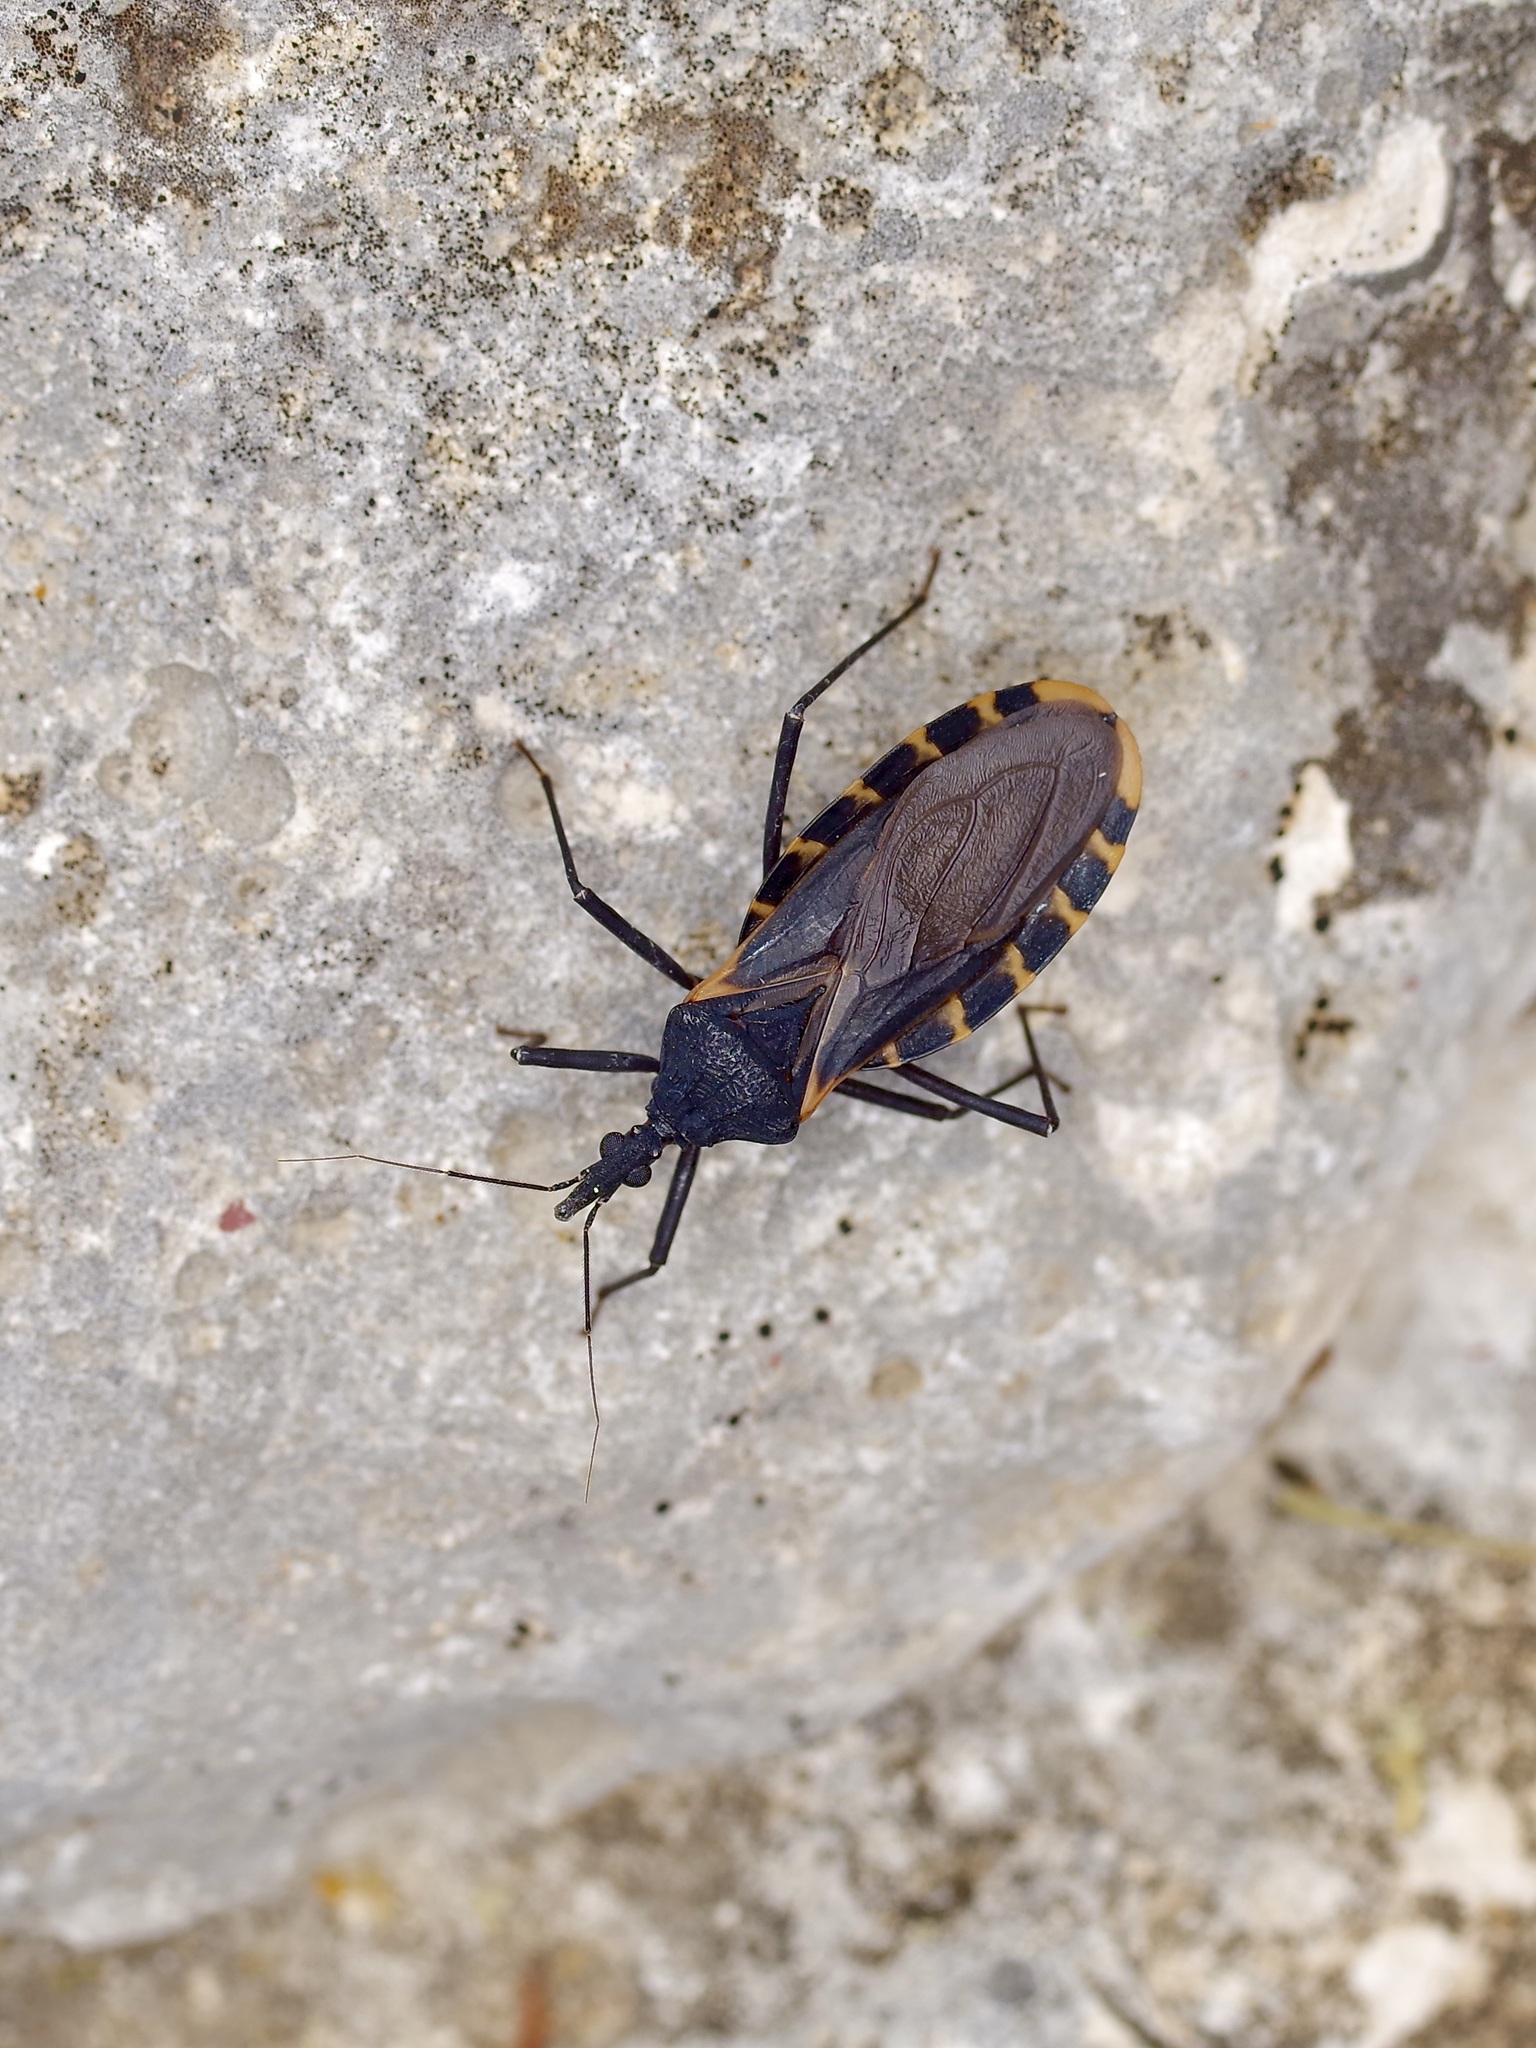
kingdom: Animalia
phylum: Arthropoda
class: Insecta
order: Hemiptera
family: Reduviidae
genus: Triatoma
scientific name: Triatoma gerstaeckeri
